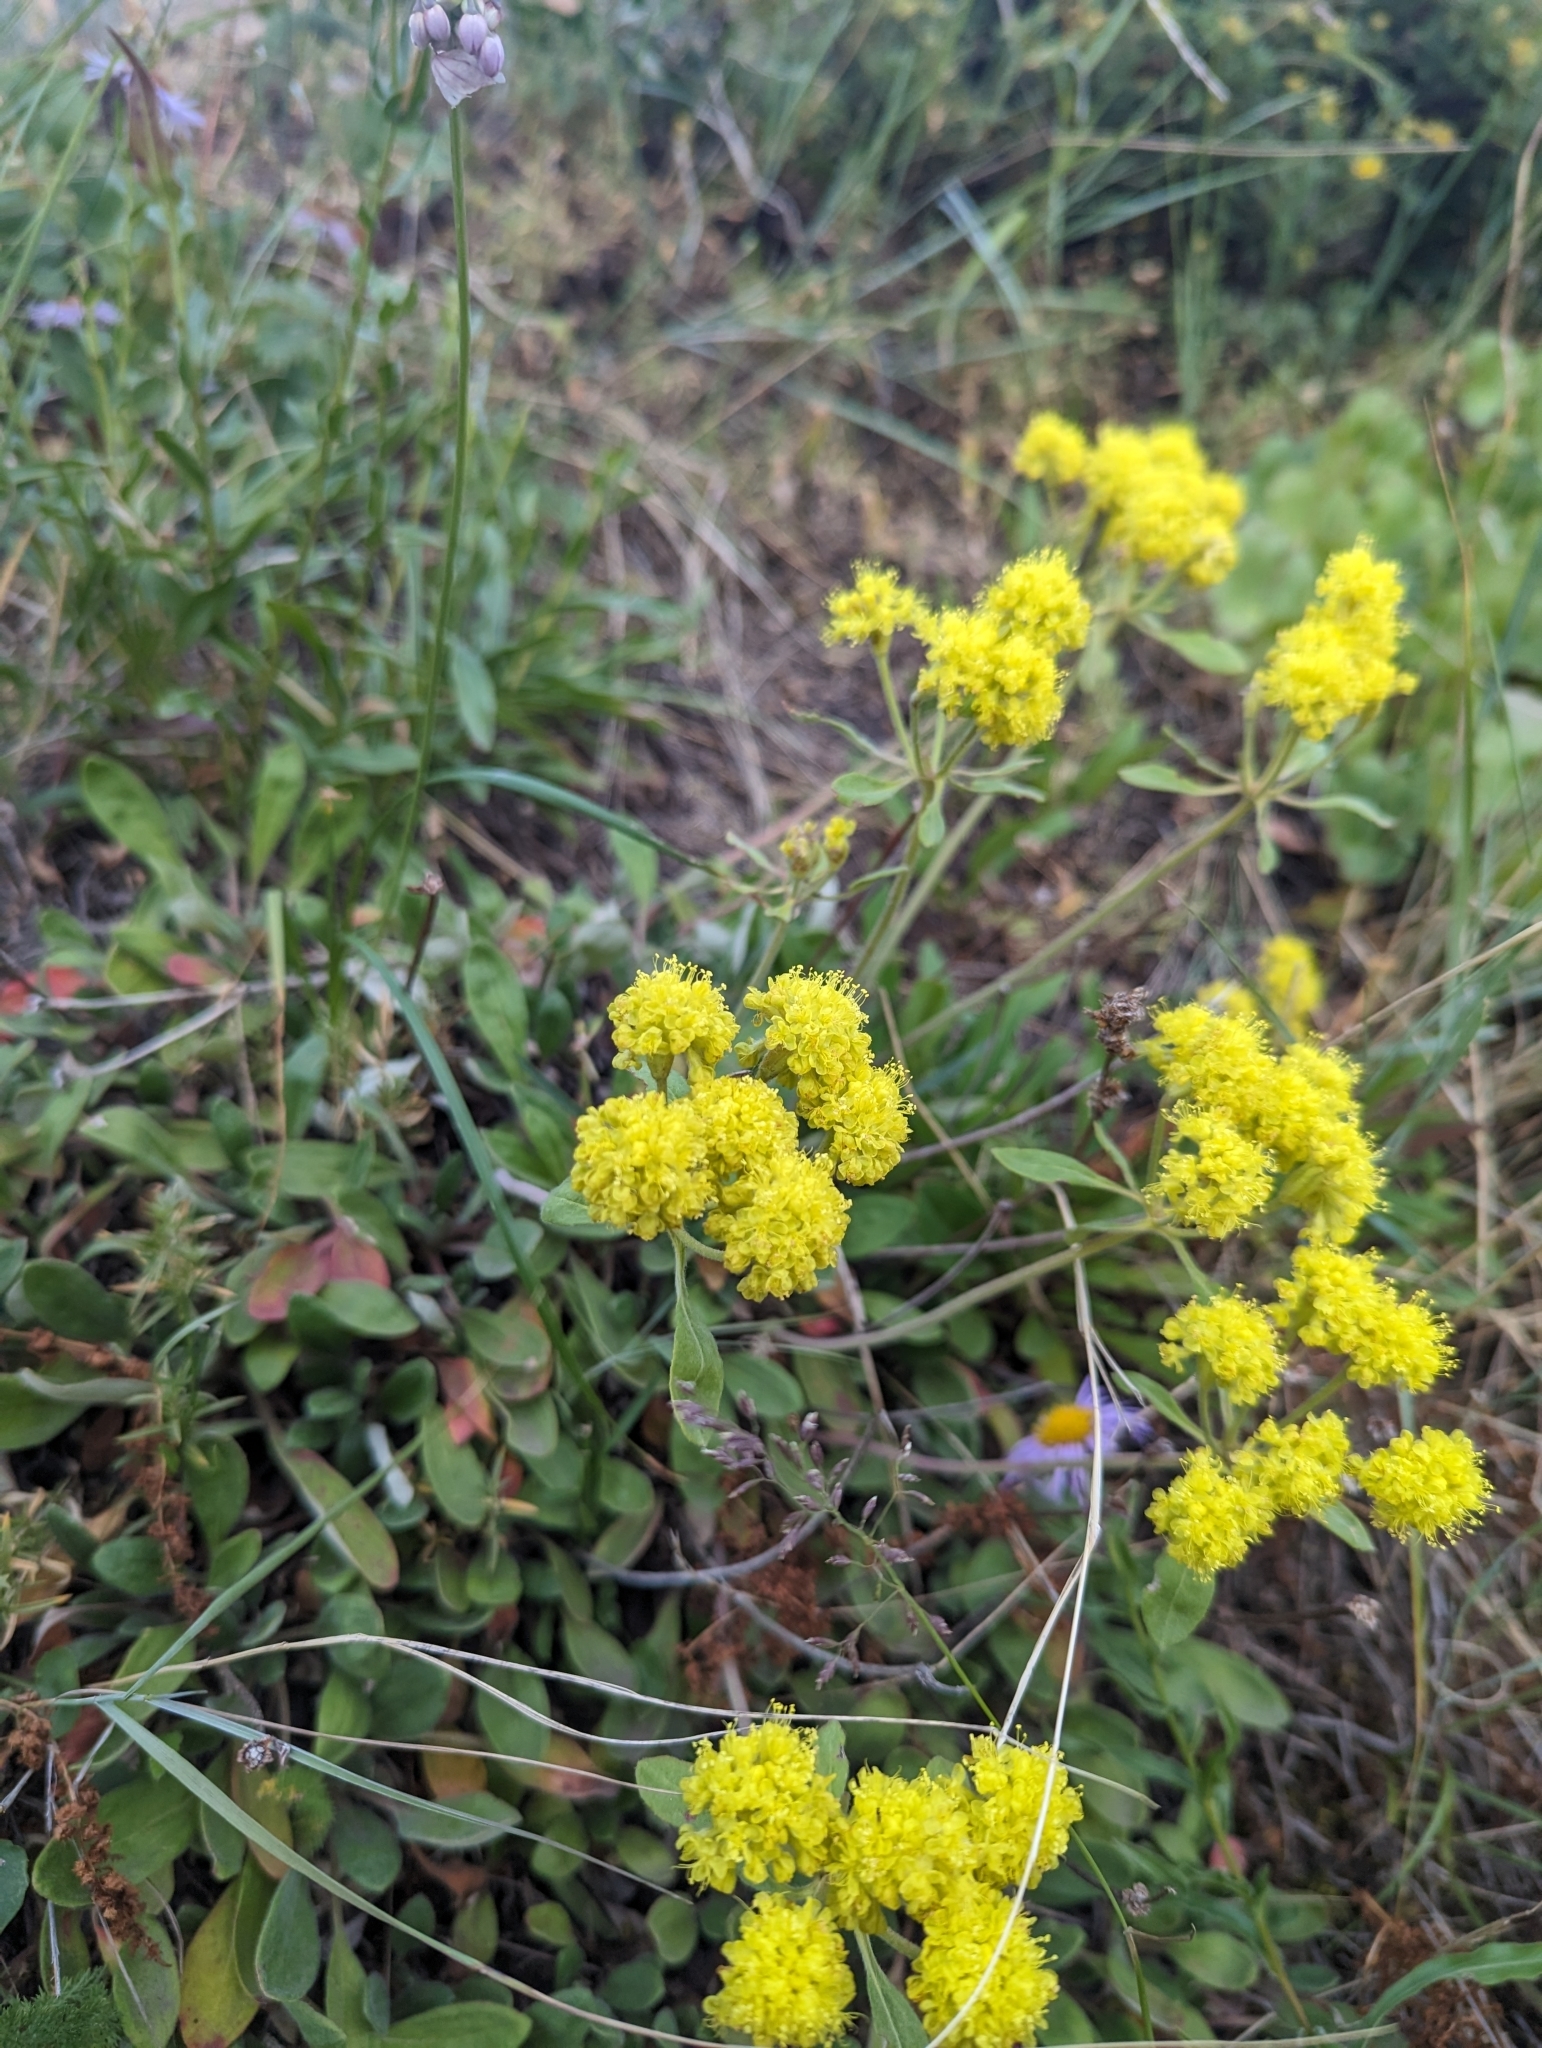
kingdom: Plantae
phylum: Tracheophyta
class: Magnoliopsida
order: Caryophyllales
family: Polygonaceae
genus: Eriogonum
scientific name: Eriogonum flavum
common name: Alpine golden wild buckwheat
